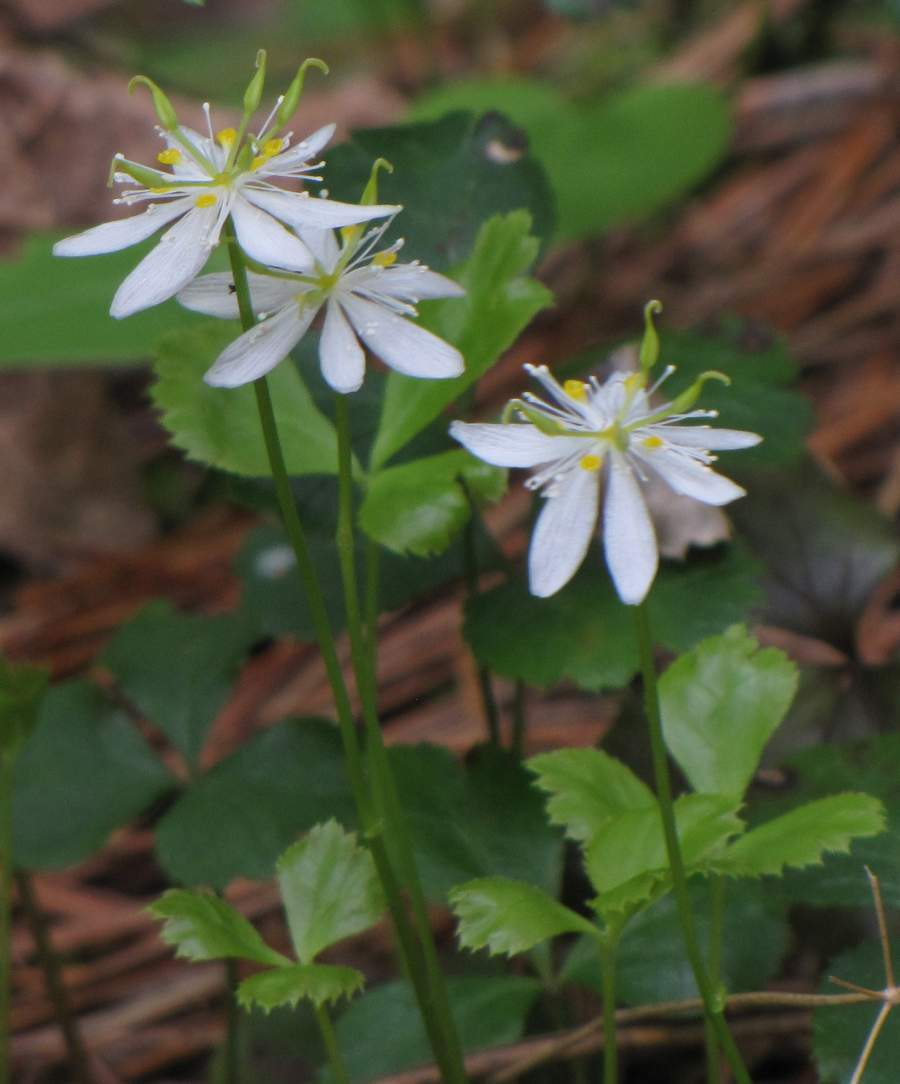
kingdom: Plantae
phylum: Tracheophyta
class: Magnoliopsida
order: Ranunculales
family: Ranunculaceae
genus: Coptis
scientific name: Coptis trifolia
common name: Canker-root
